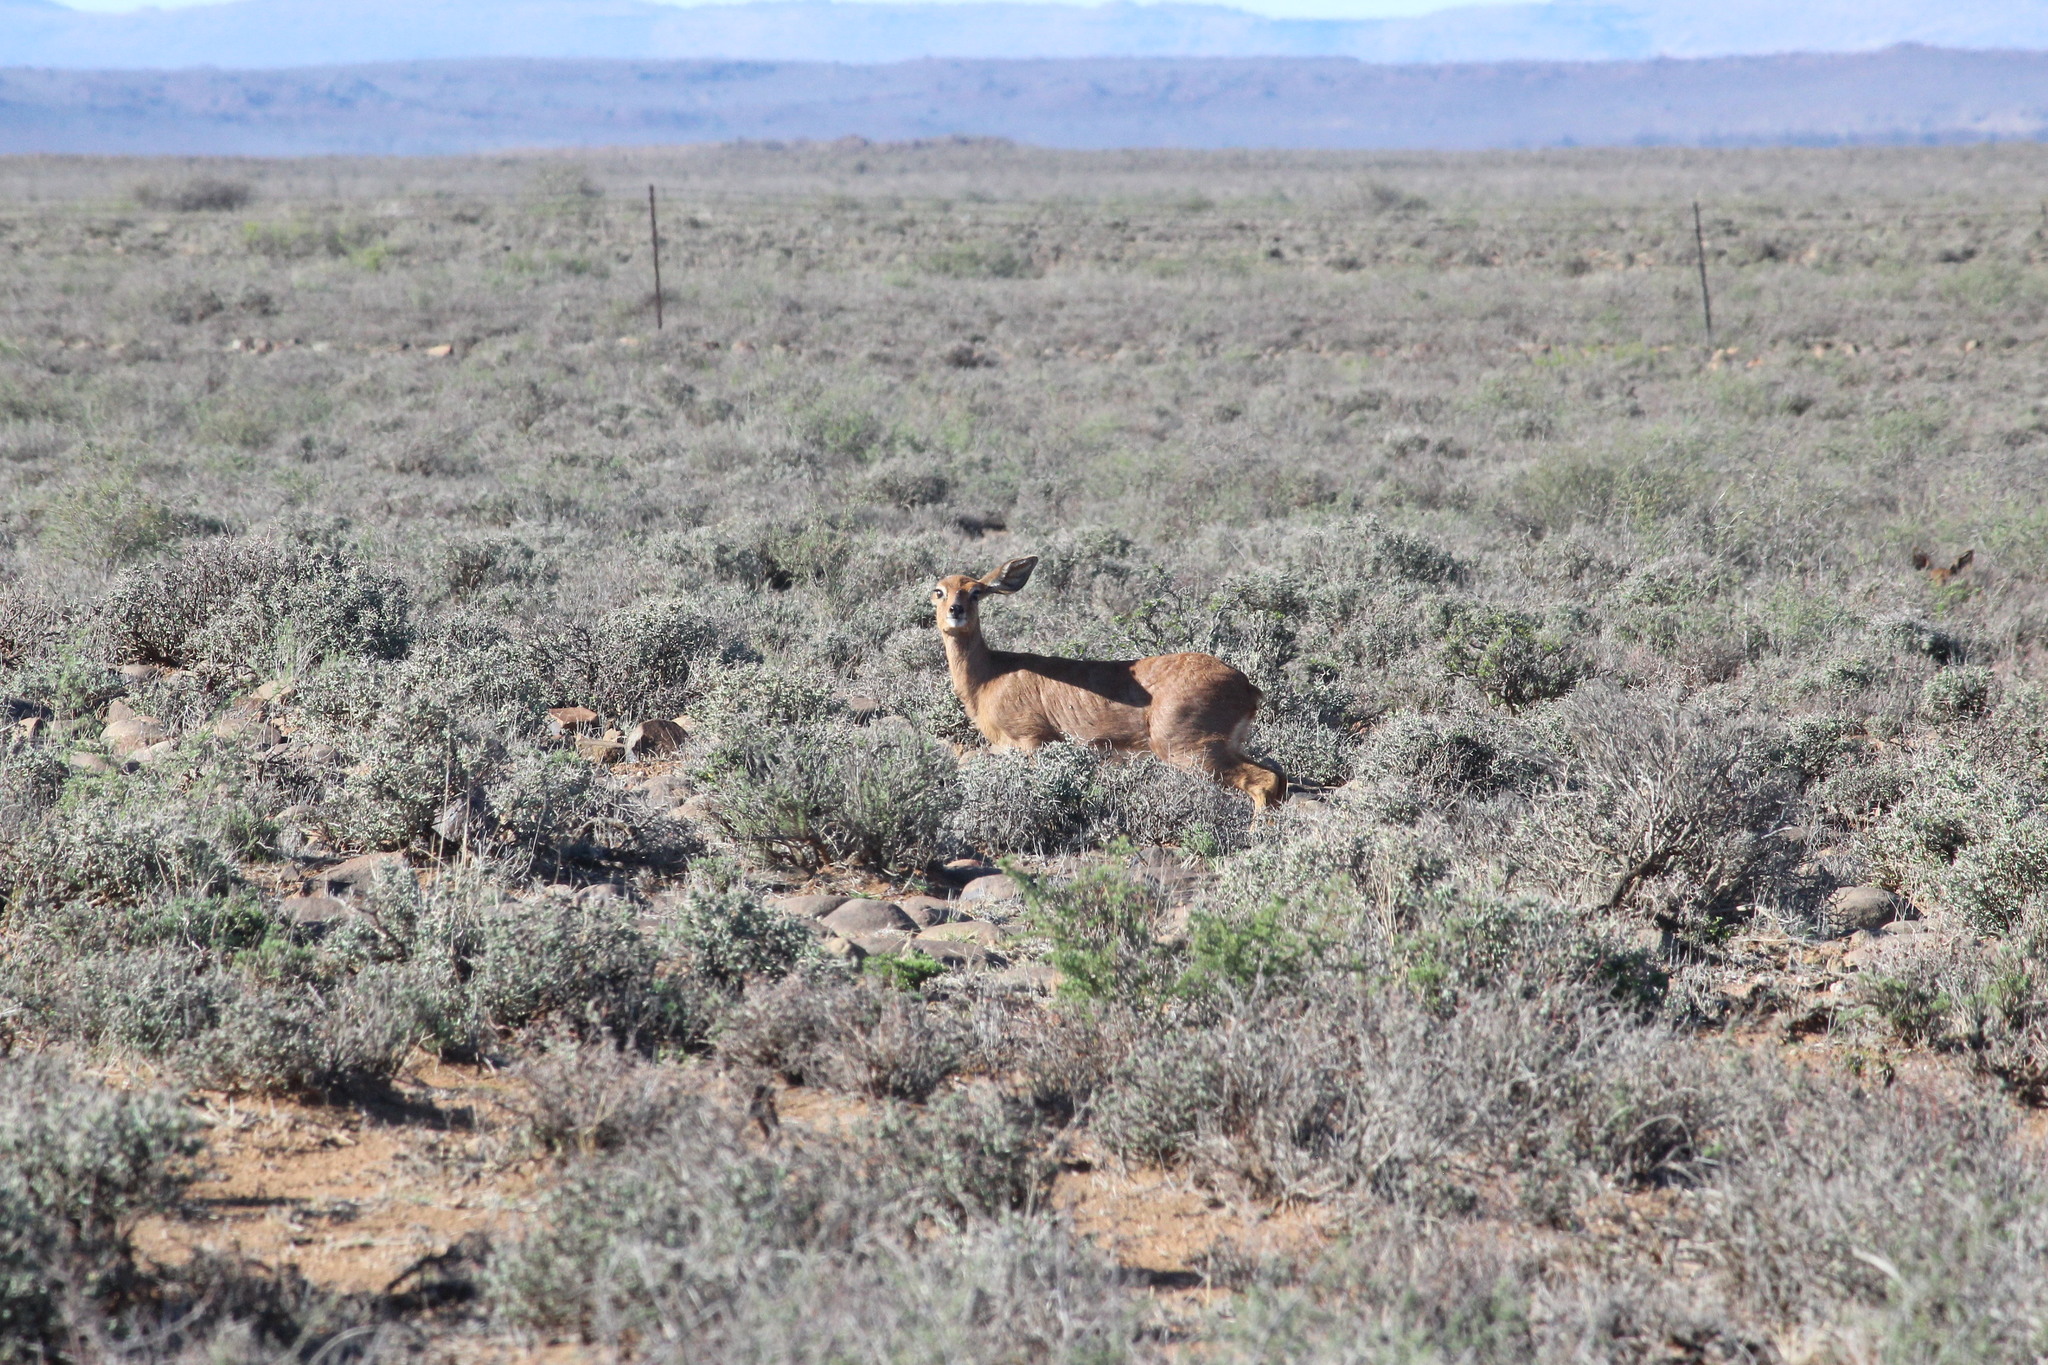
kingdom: Animalia
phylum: Chordata
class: Mammalia
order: Artiodactyla
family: Bovidae
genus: Raphicerus
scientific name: Raphicerus campestris
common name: Steenbok
